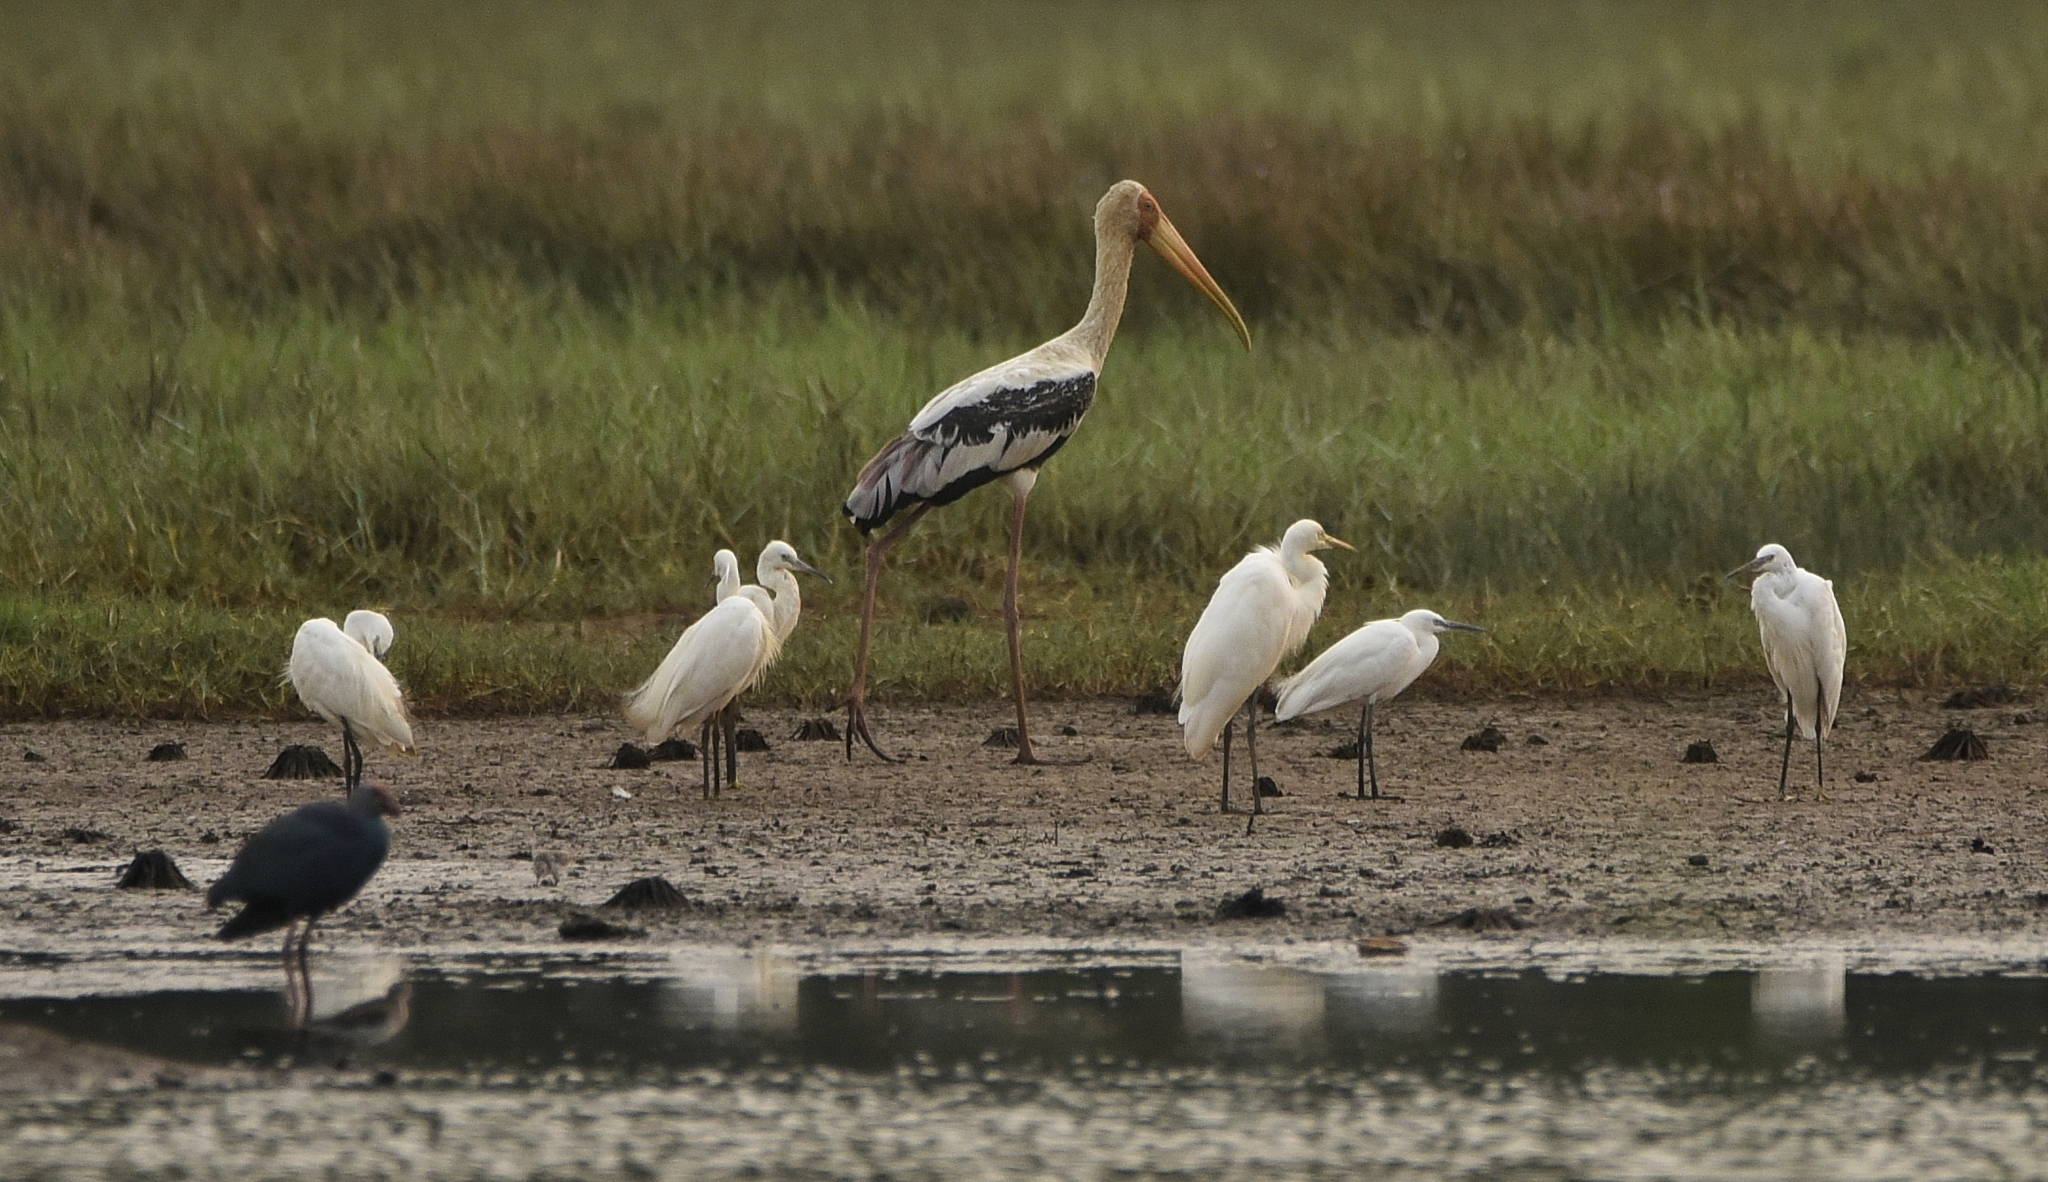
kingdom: Animalia
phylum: Chordata
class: Aves
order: Ciconiiformes
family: Ciconiidae
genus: Mycteria
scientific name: Mycteria leucocephala
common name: Painted stork
